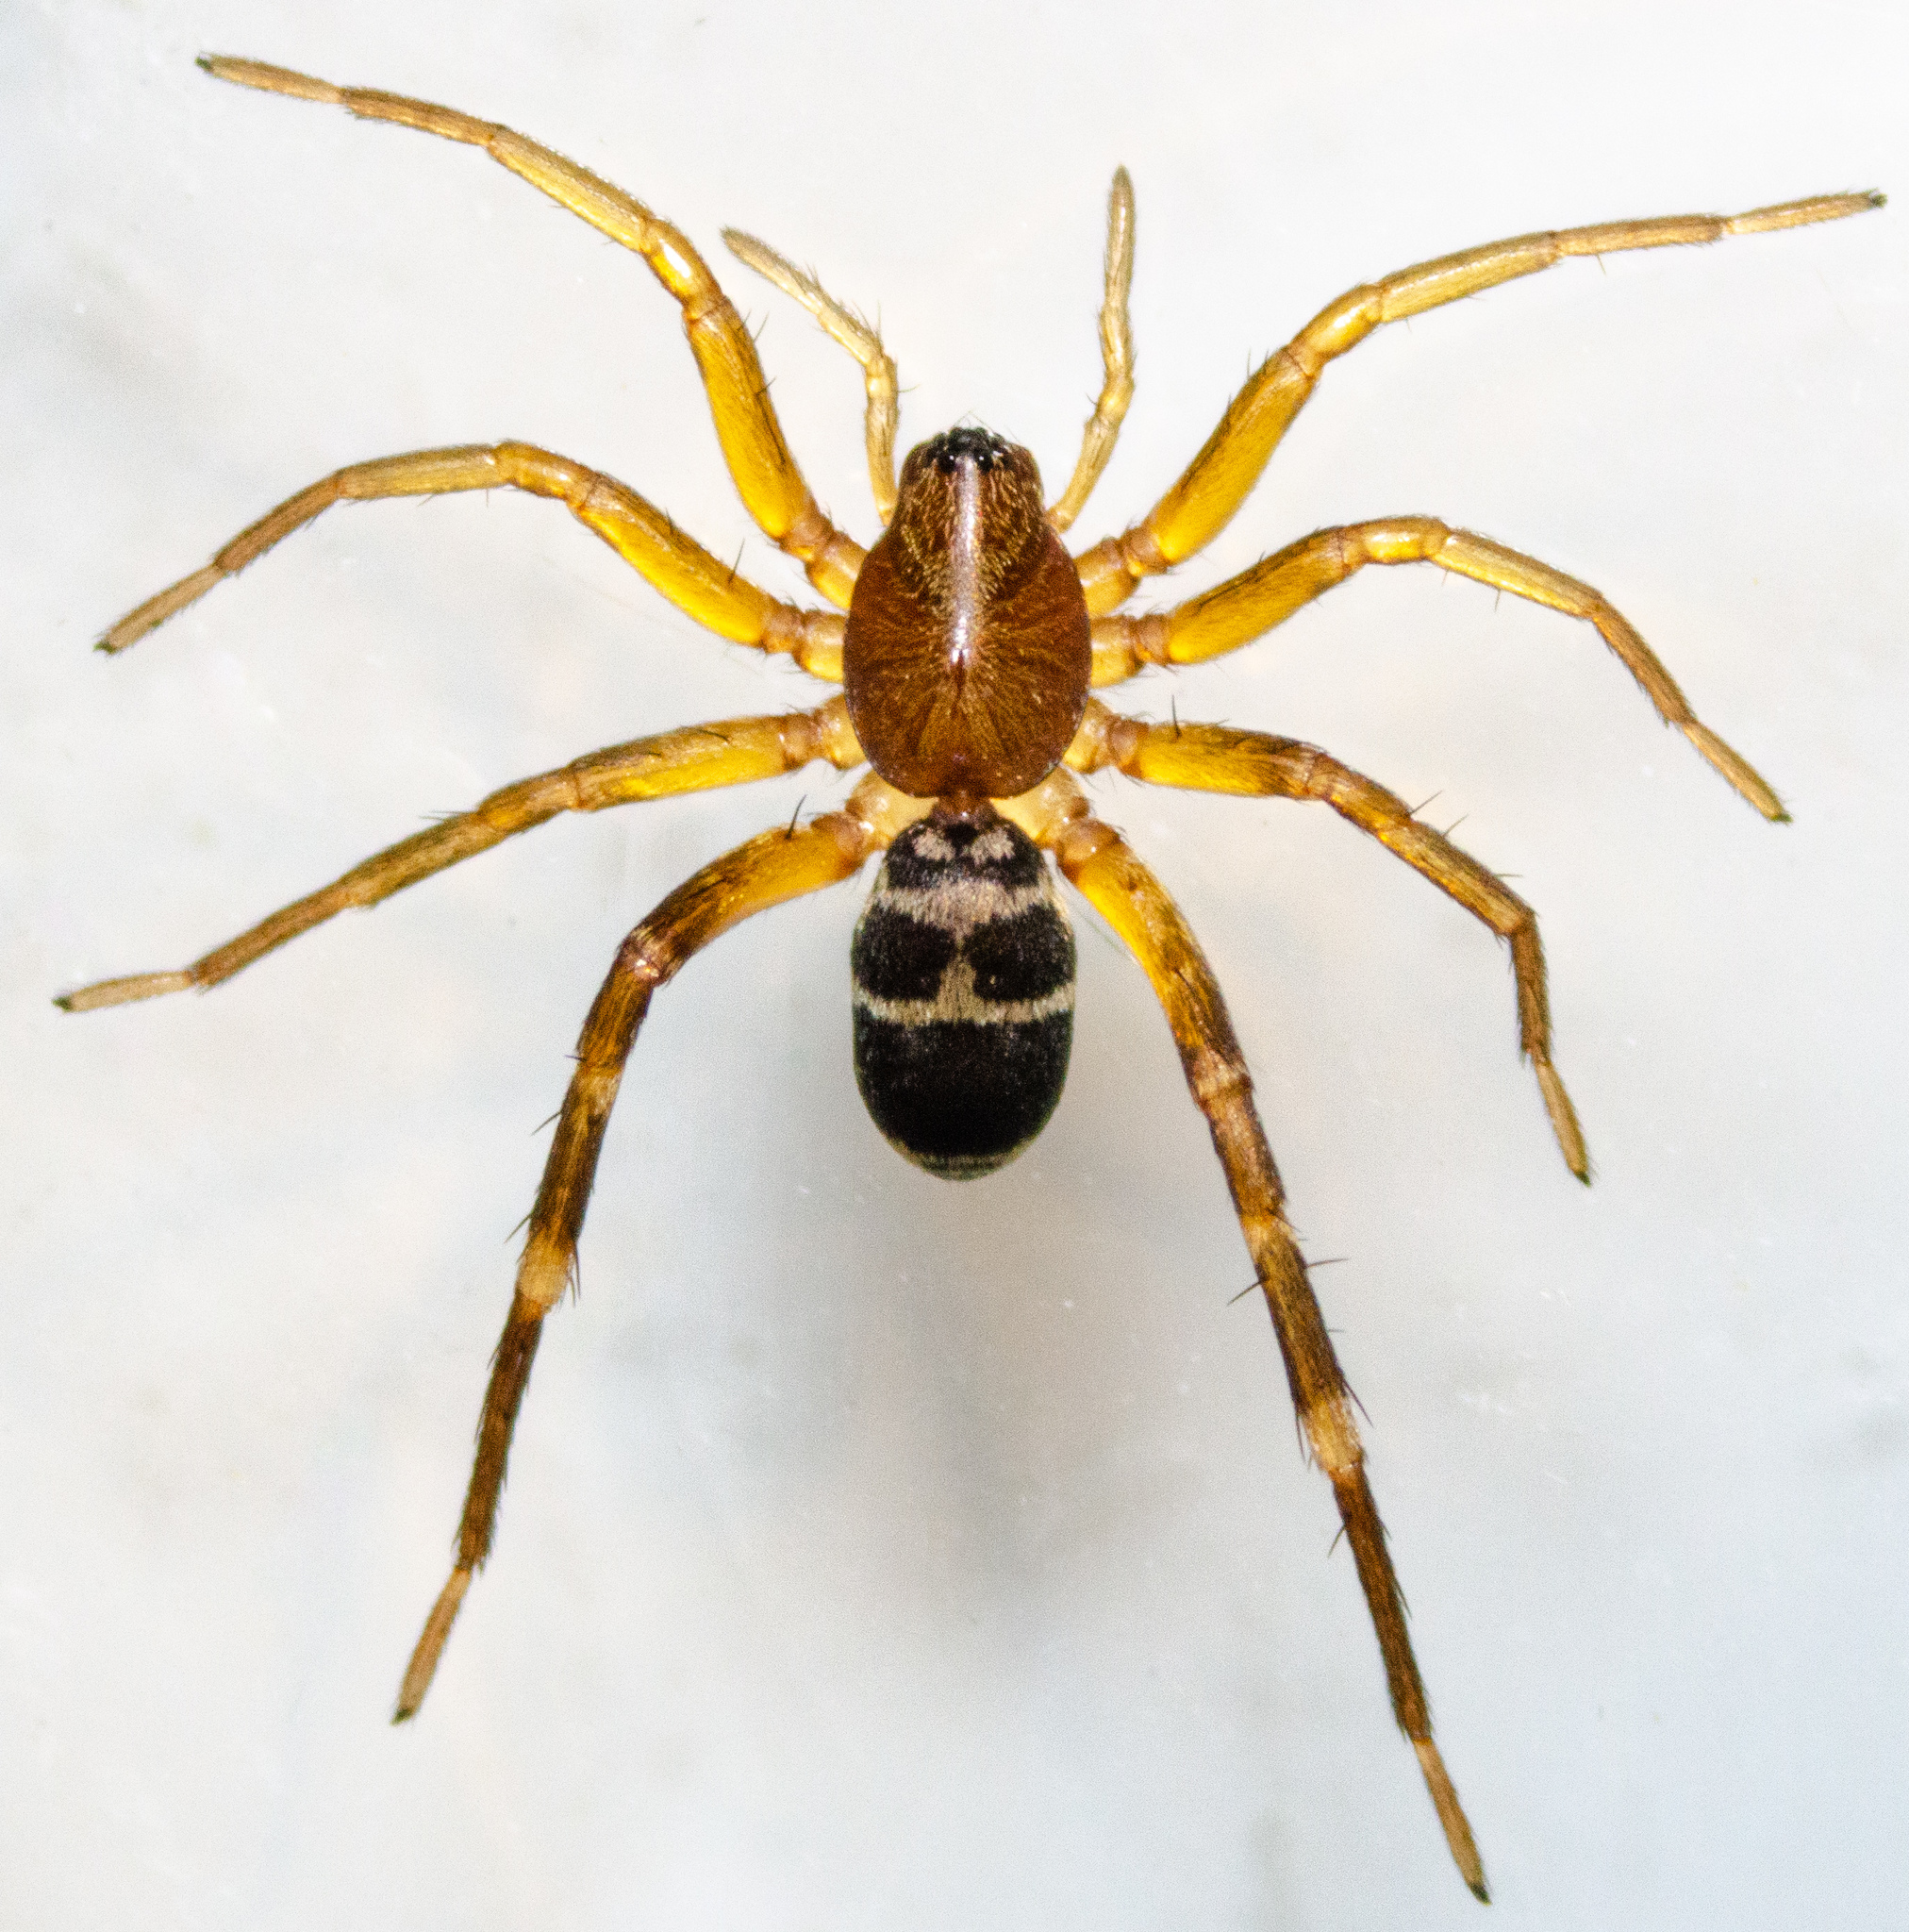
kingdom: Animalia
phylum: Arthropoda
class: Arachnida
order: Araneae
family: Corinnidae
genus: Castianeira
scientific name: Castianeira thalia
